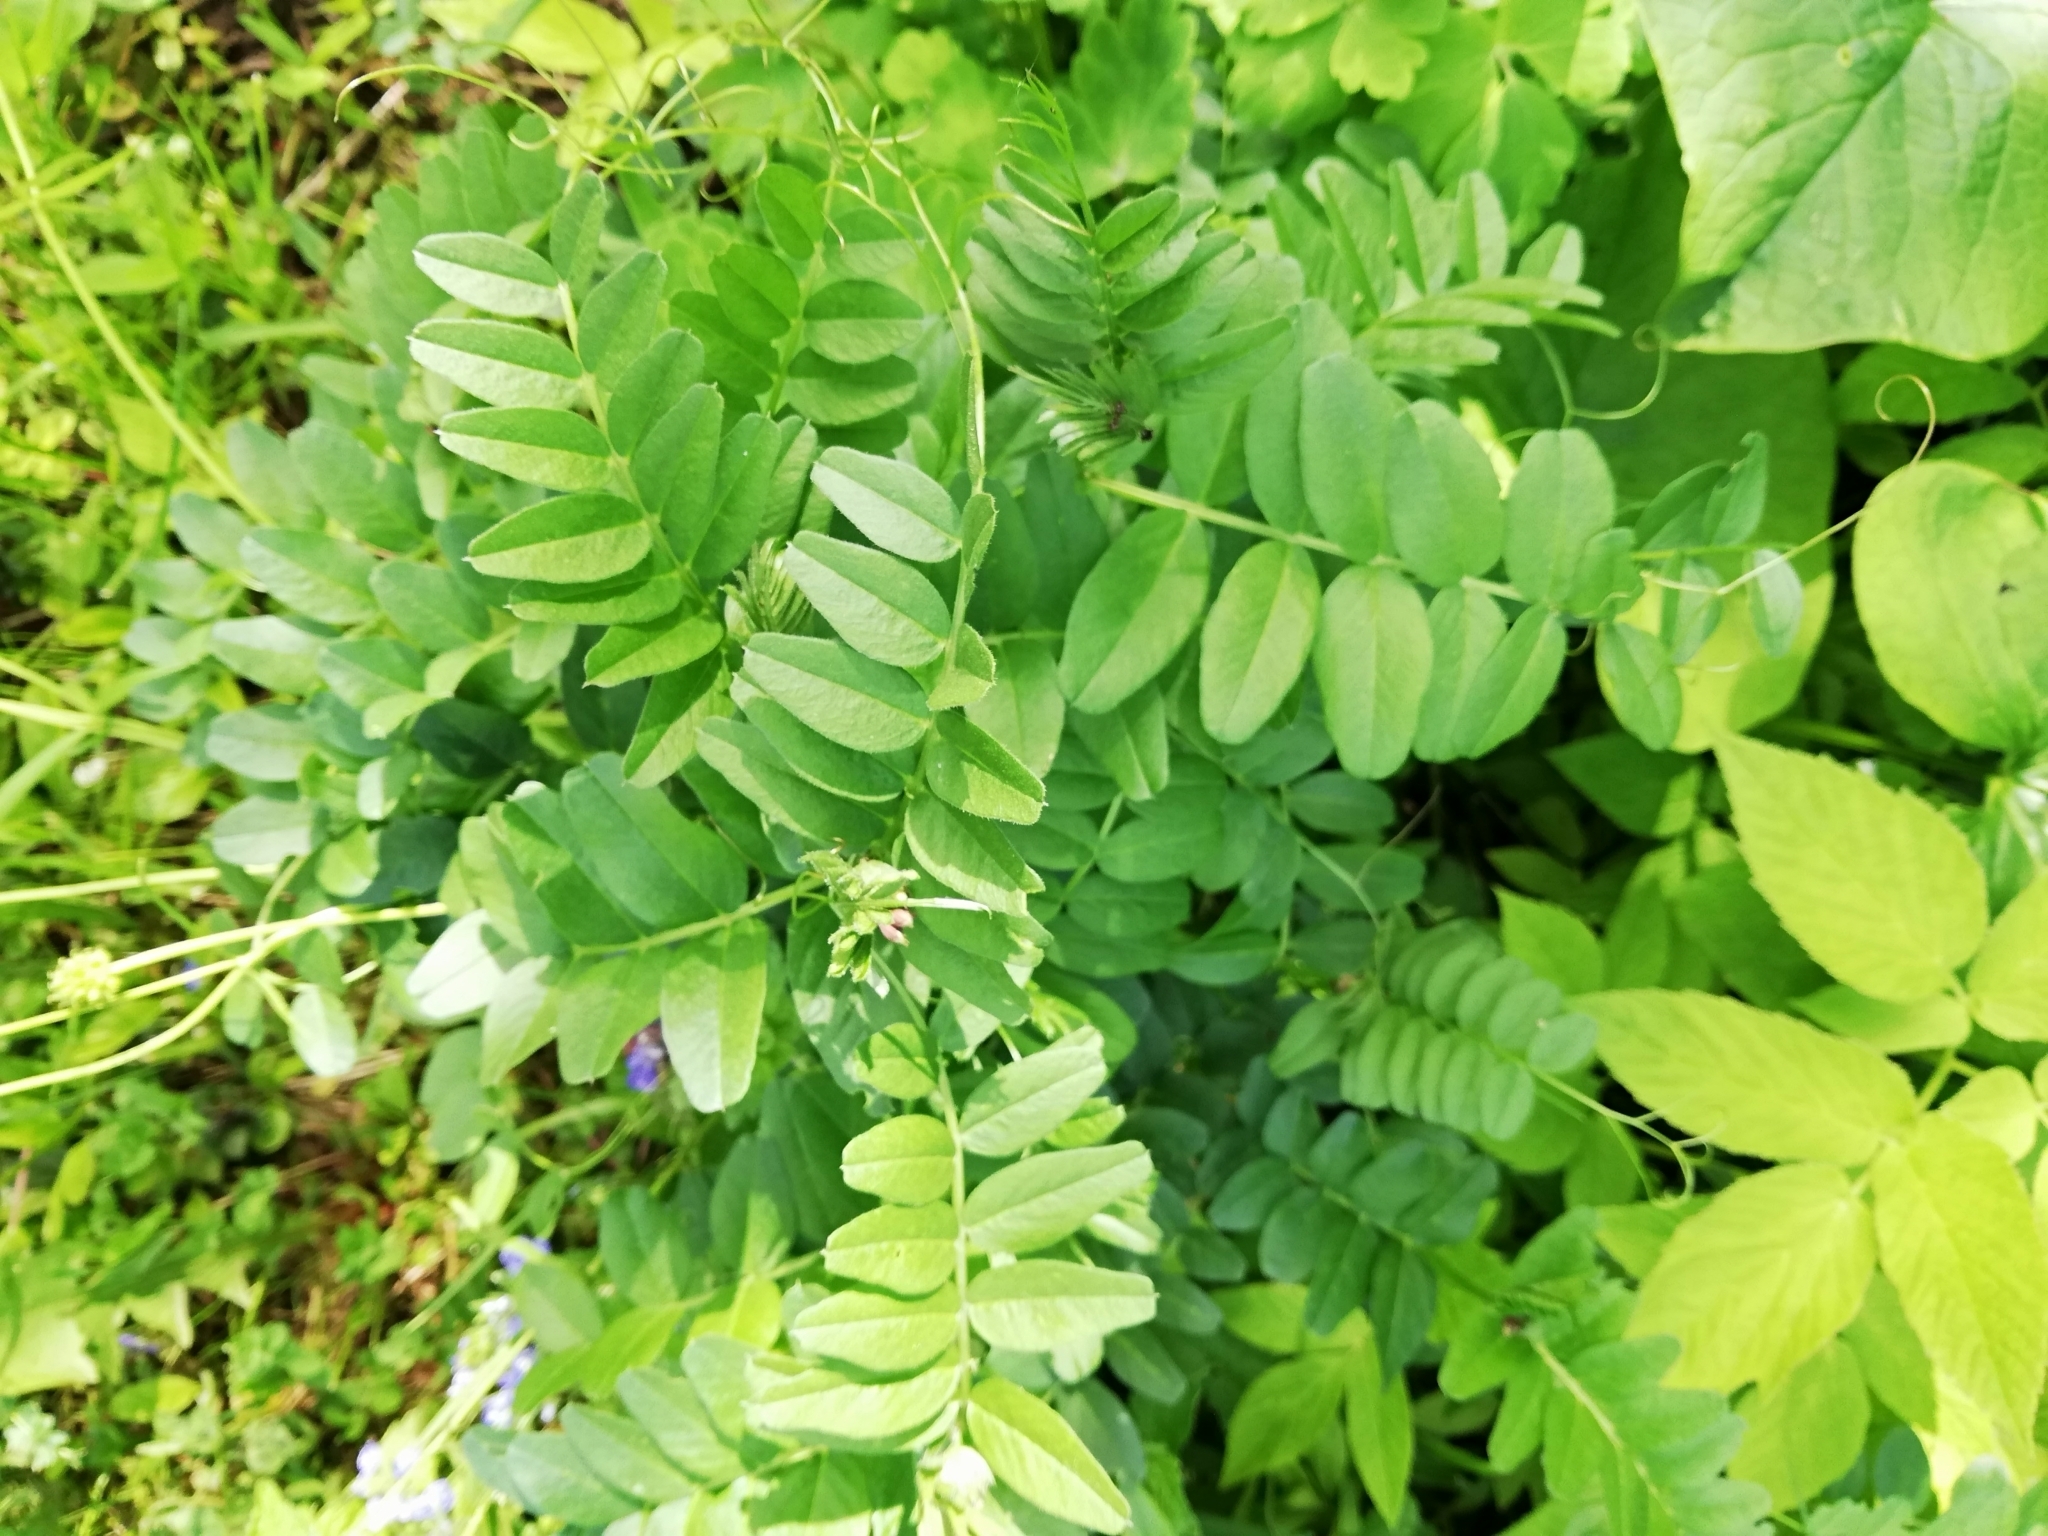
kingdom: Plantae
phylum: Tracheophyta
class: Magnoliopsida
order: Fabales
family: Fabaceae
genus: Vicia
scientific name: Vicia sepium
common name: Bush vetch
